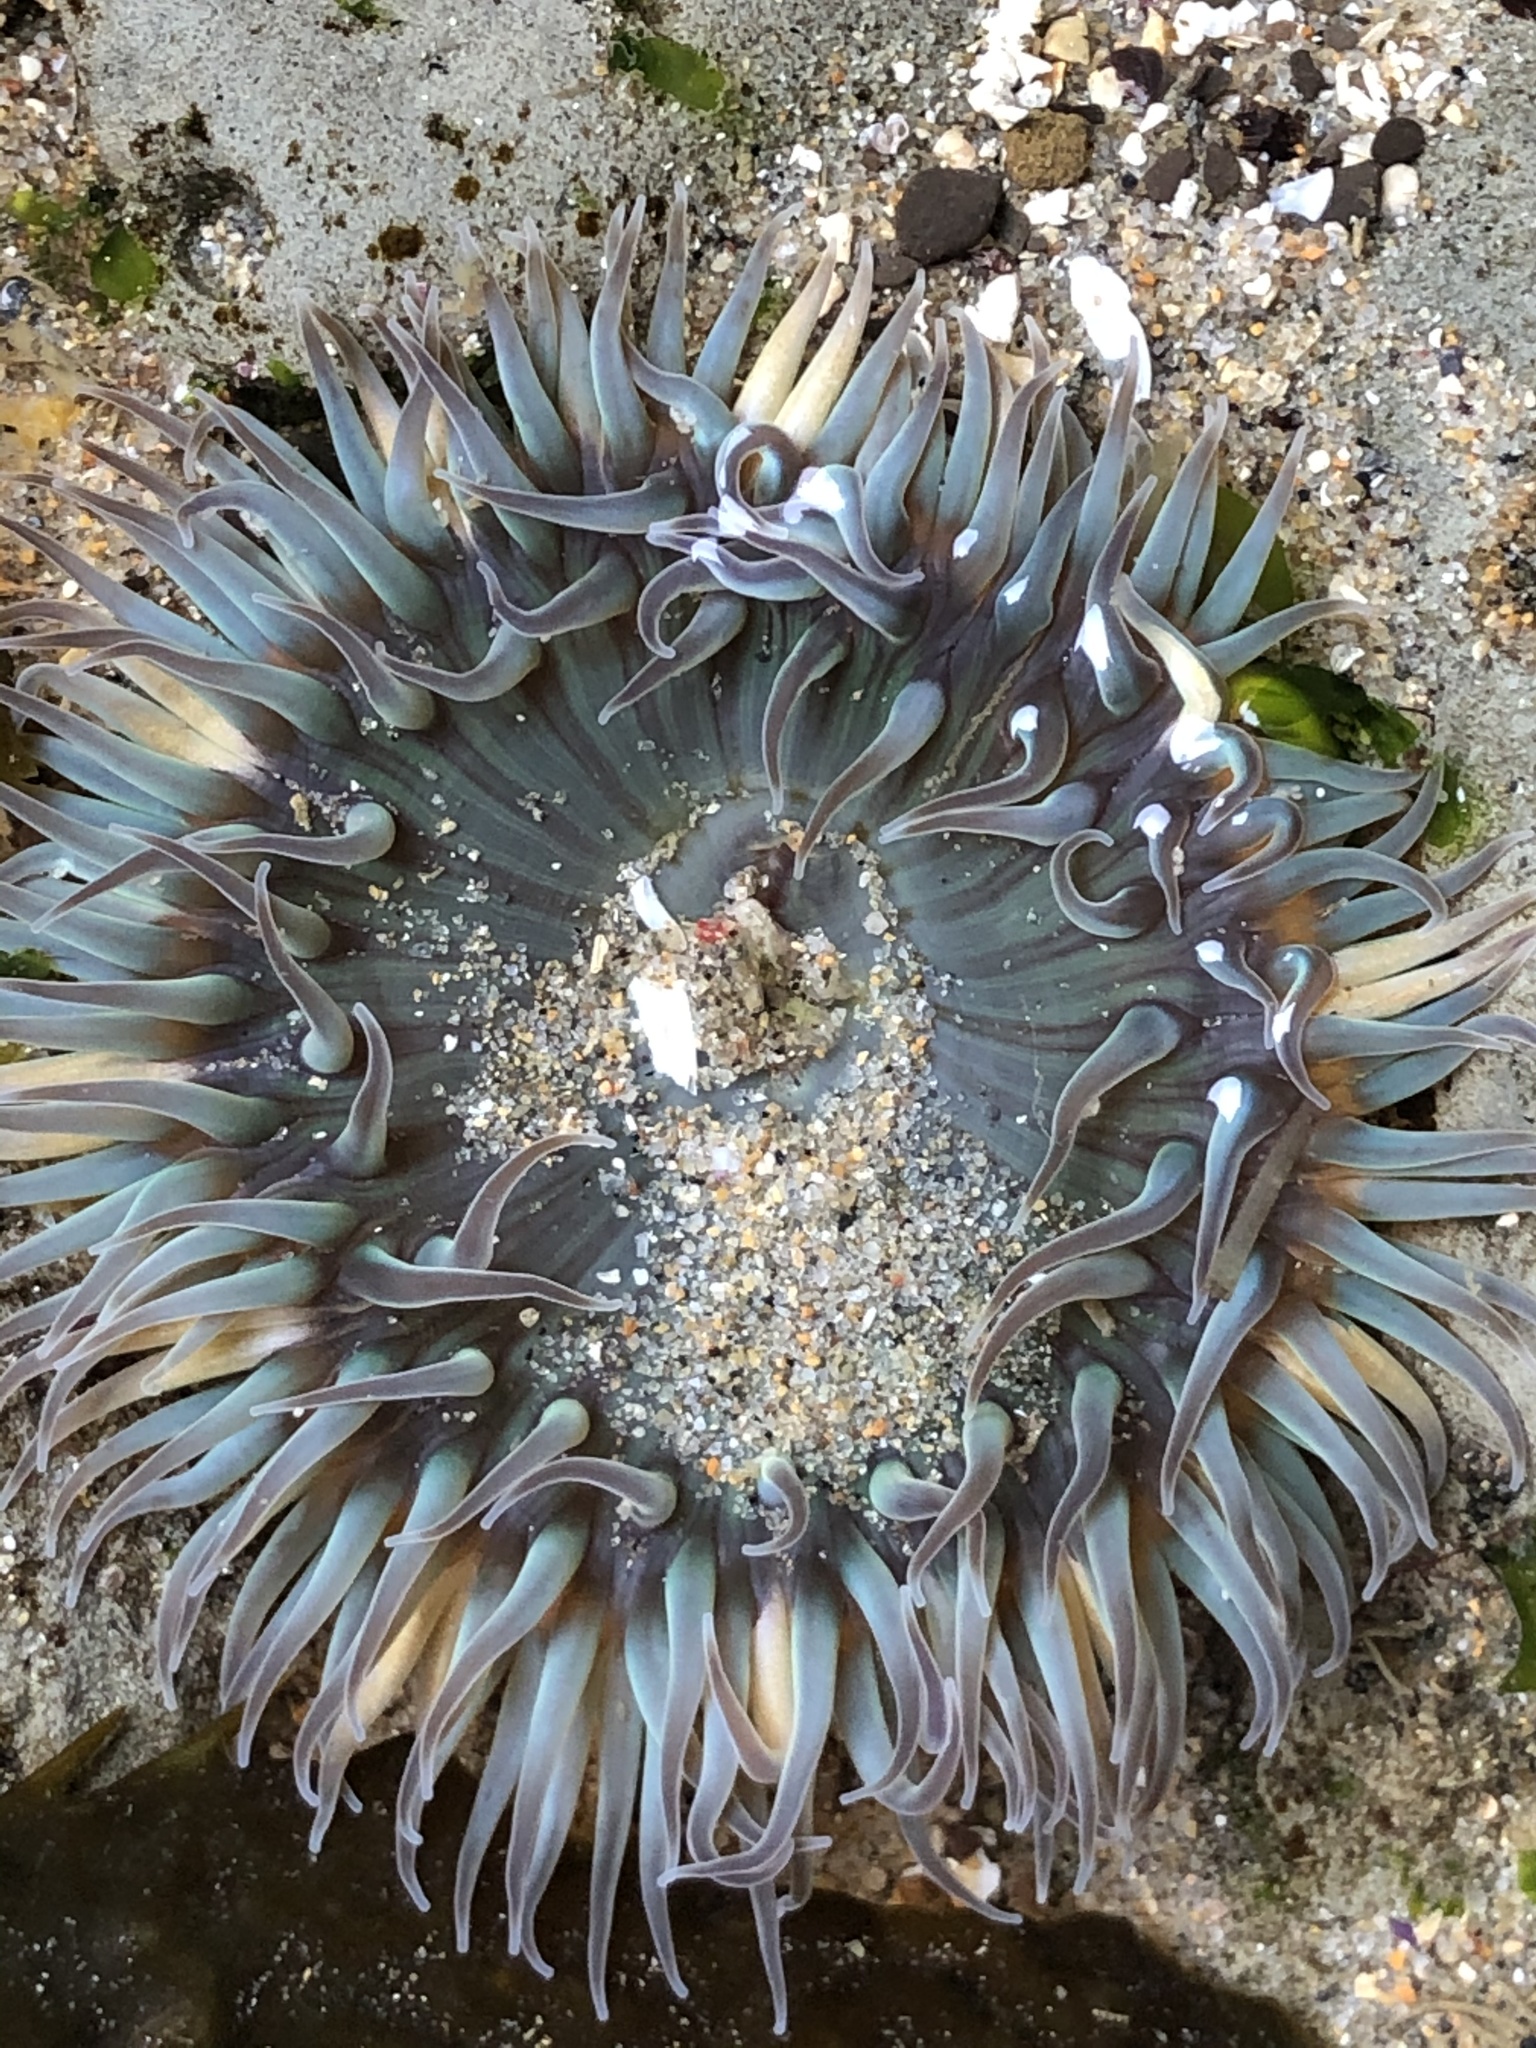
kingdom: Animalia
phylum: Cnidaria
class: Anthozoa
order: Actiniaria
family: Actiniidae
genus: Anthopleura
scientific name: Anthopleura sola
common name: Sun anemone
